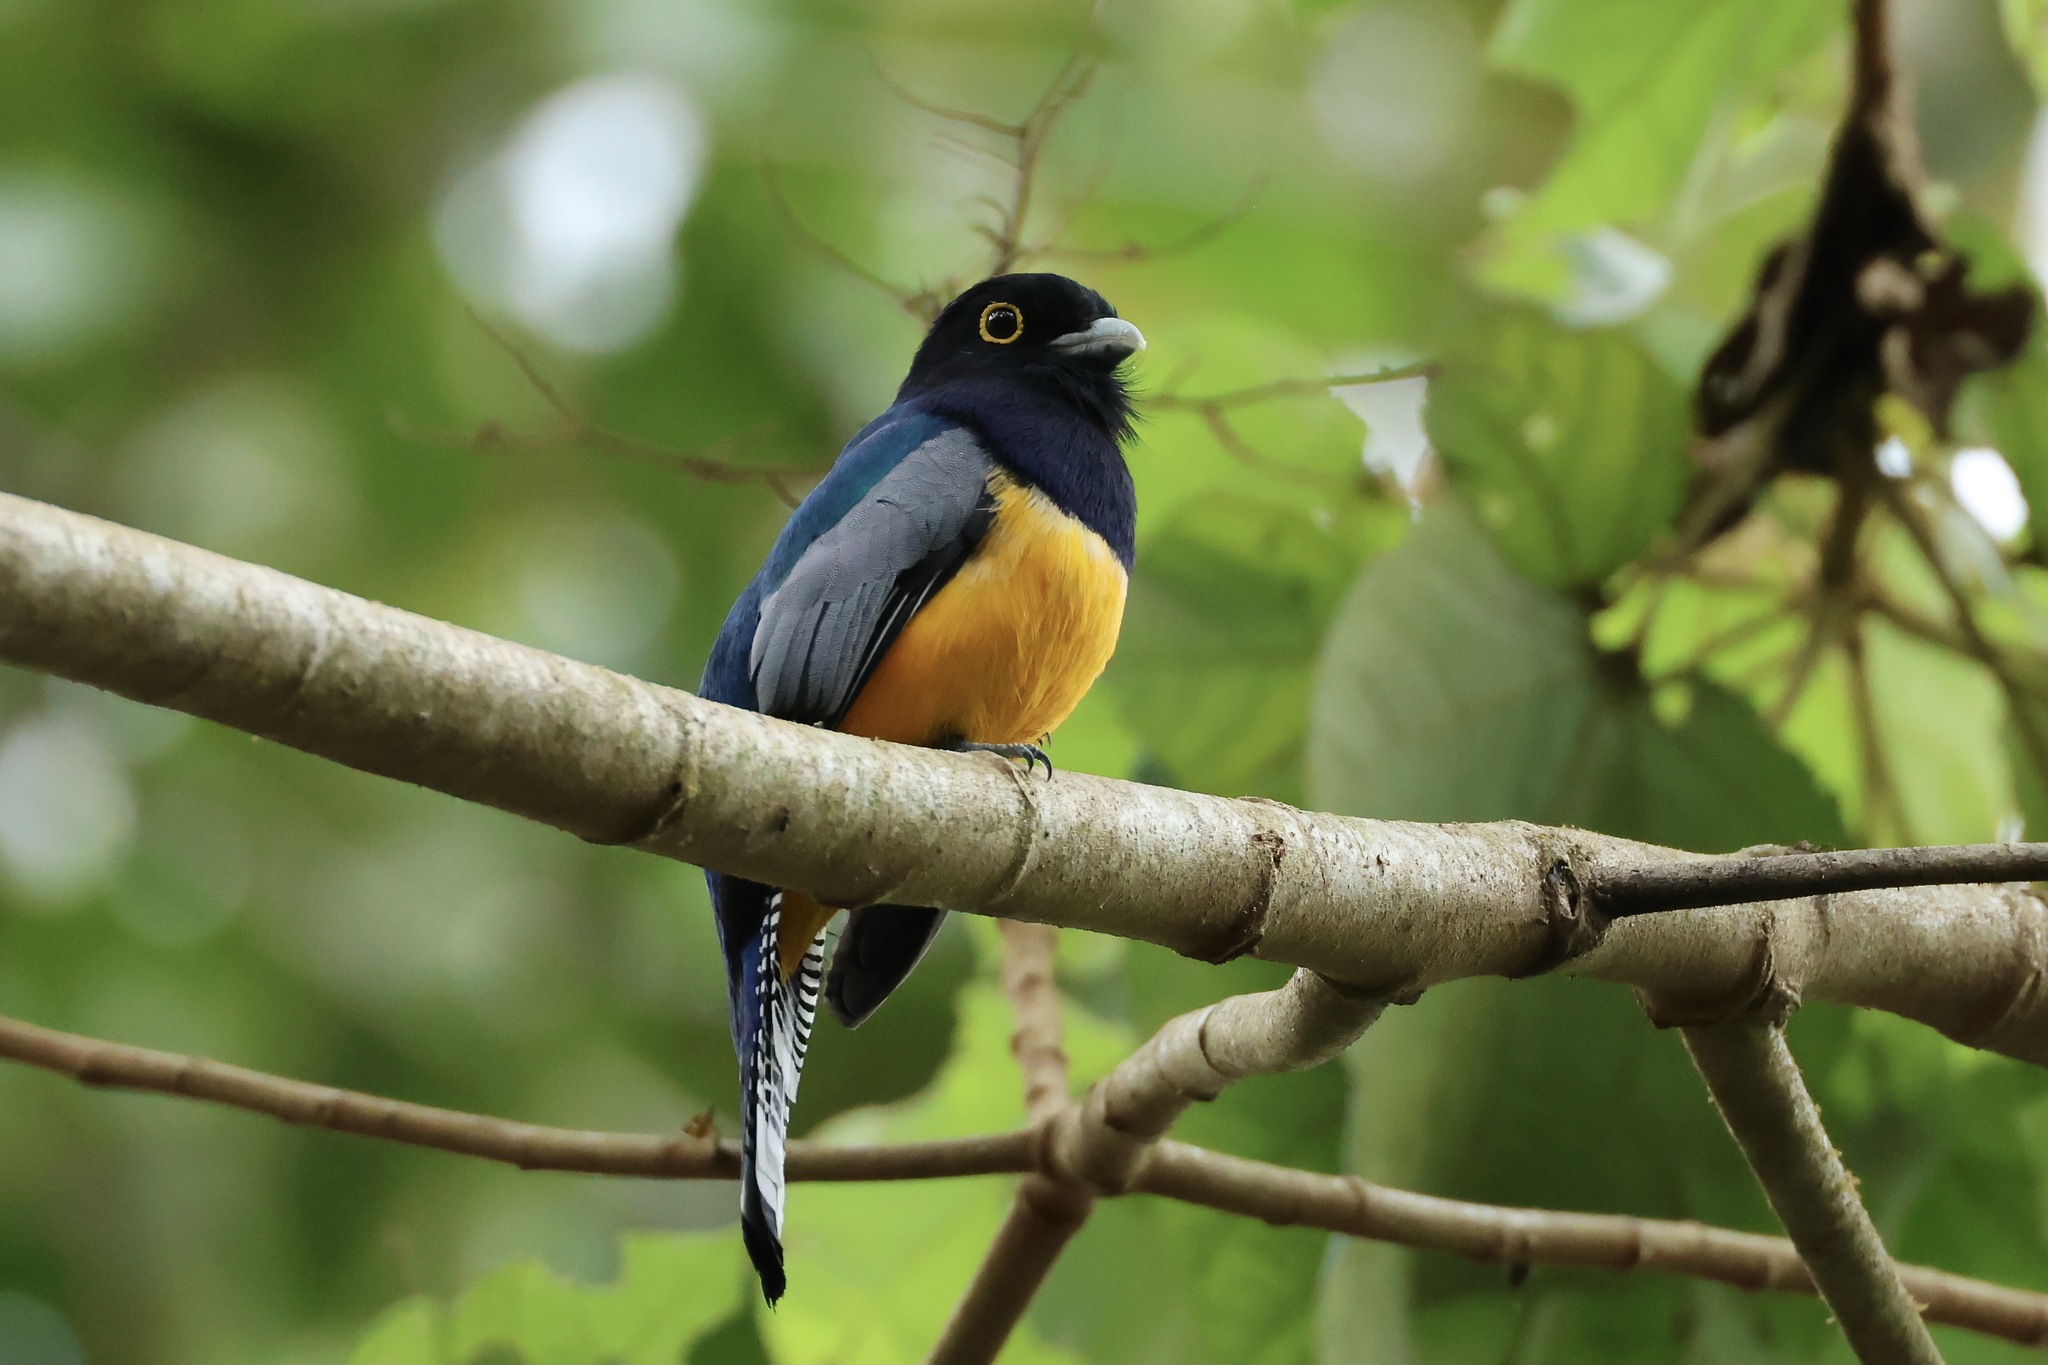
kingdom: Animalia
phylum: Chordata
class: Aves
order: Trogoniformes
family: Trogonidae
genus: Trogon
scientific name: Trogon caligatus
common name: Gartered trogon
